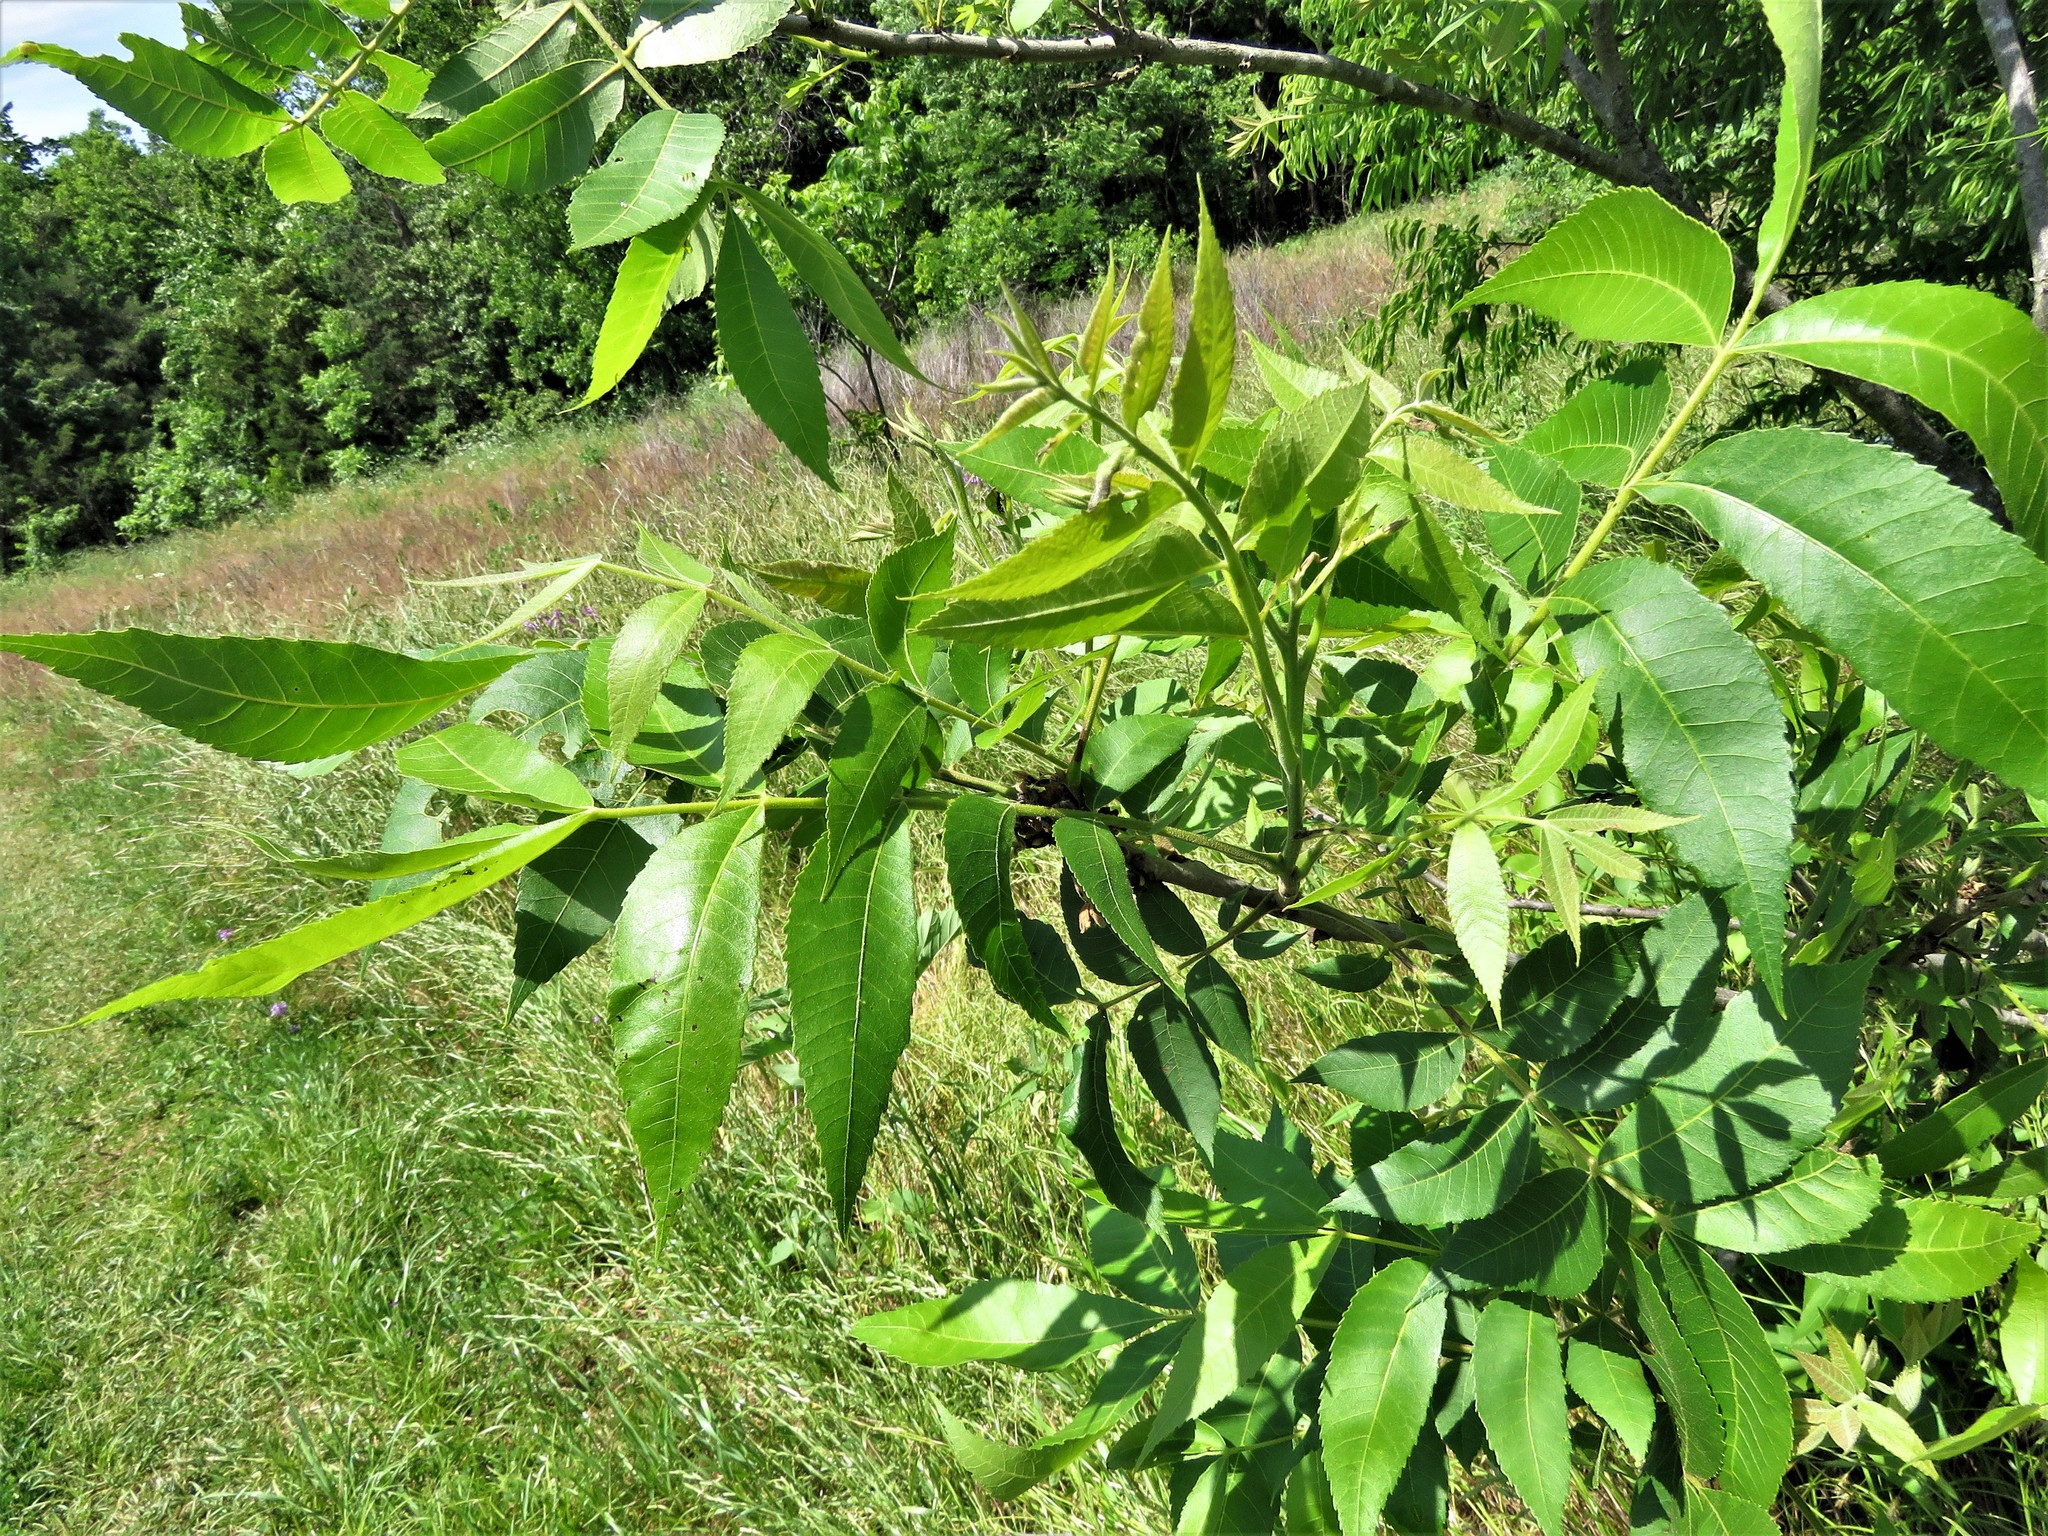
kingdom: Plantae
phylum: Tracheophyta
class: Magnoliopsida
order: Fagales
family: Juglandaceae
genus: Carya
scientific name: Carya illinoinensis
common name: Pecan
